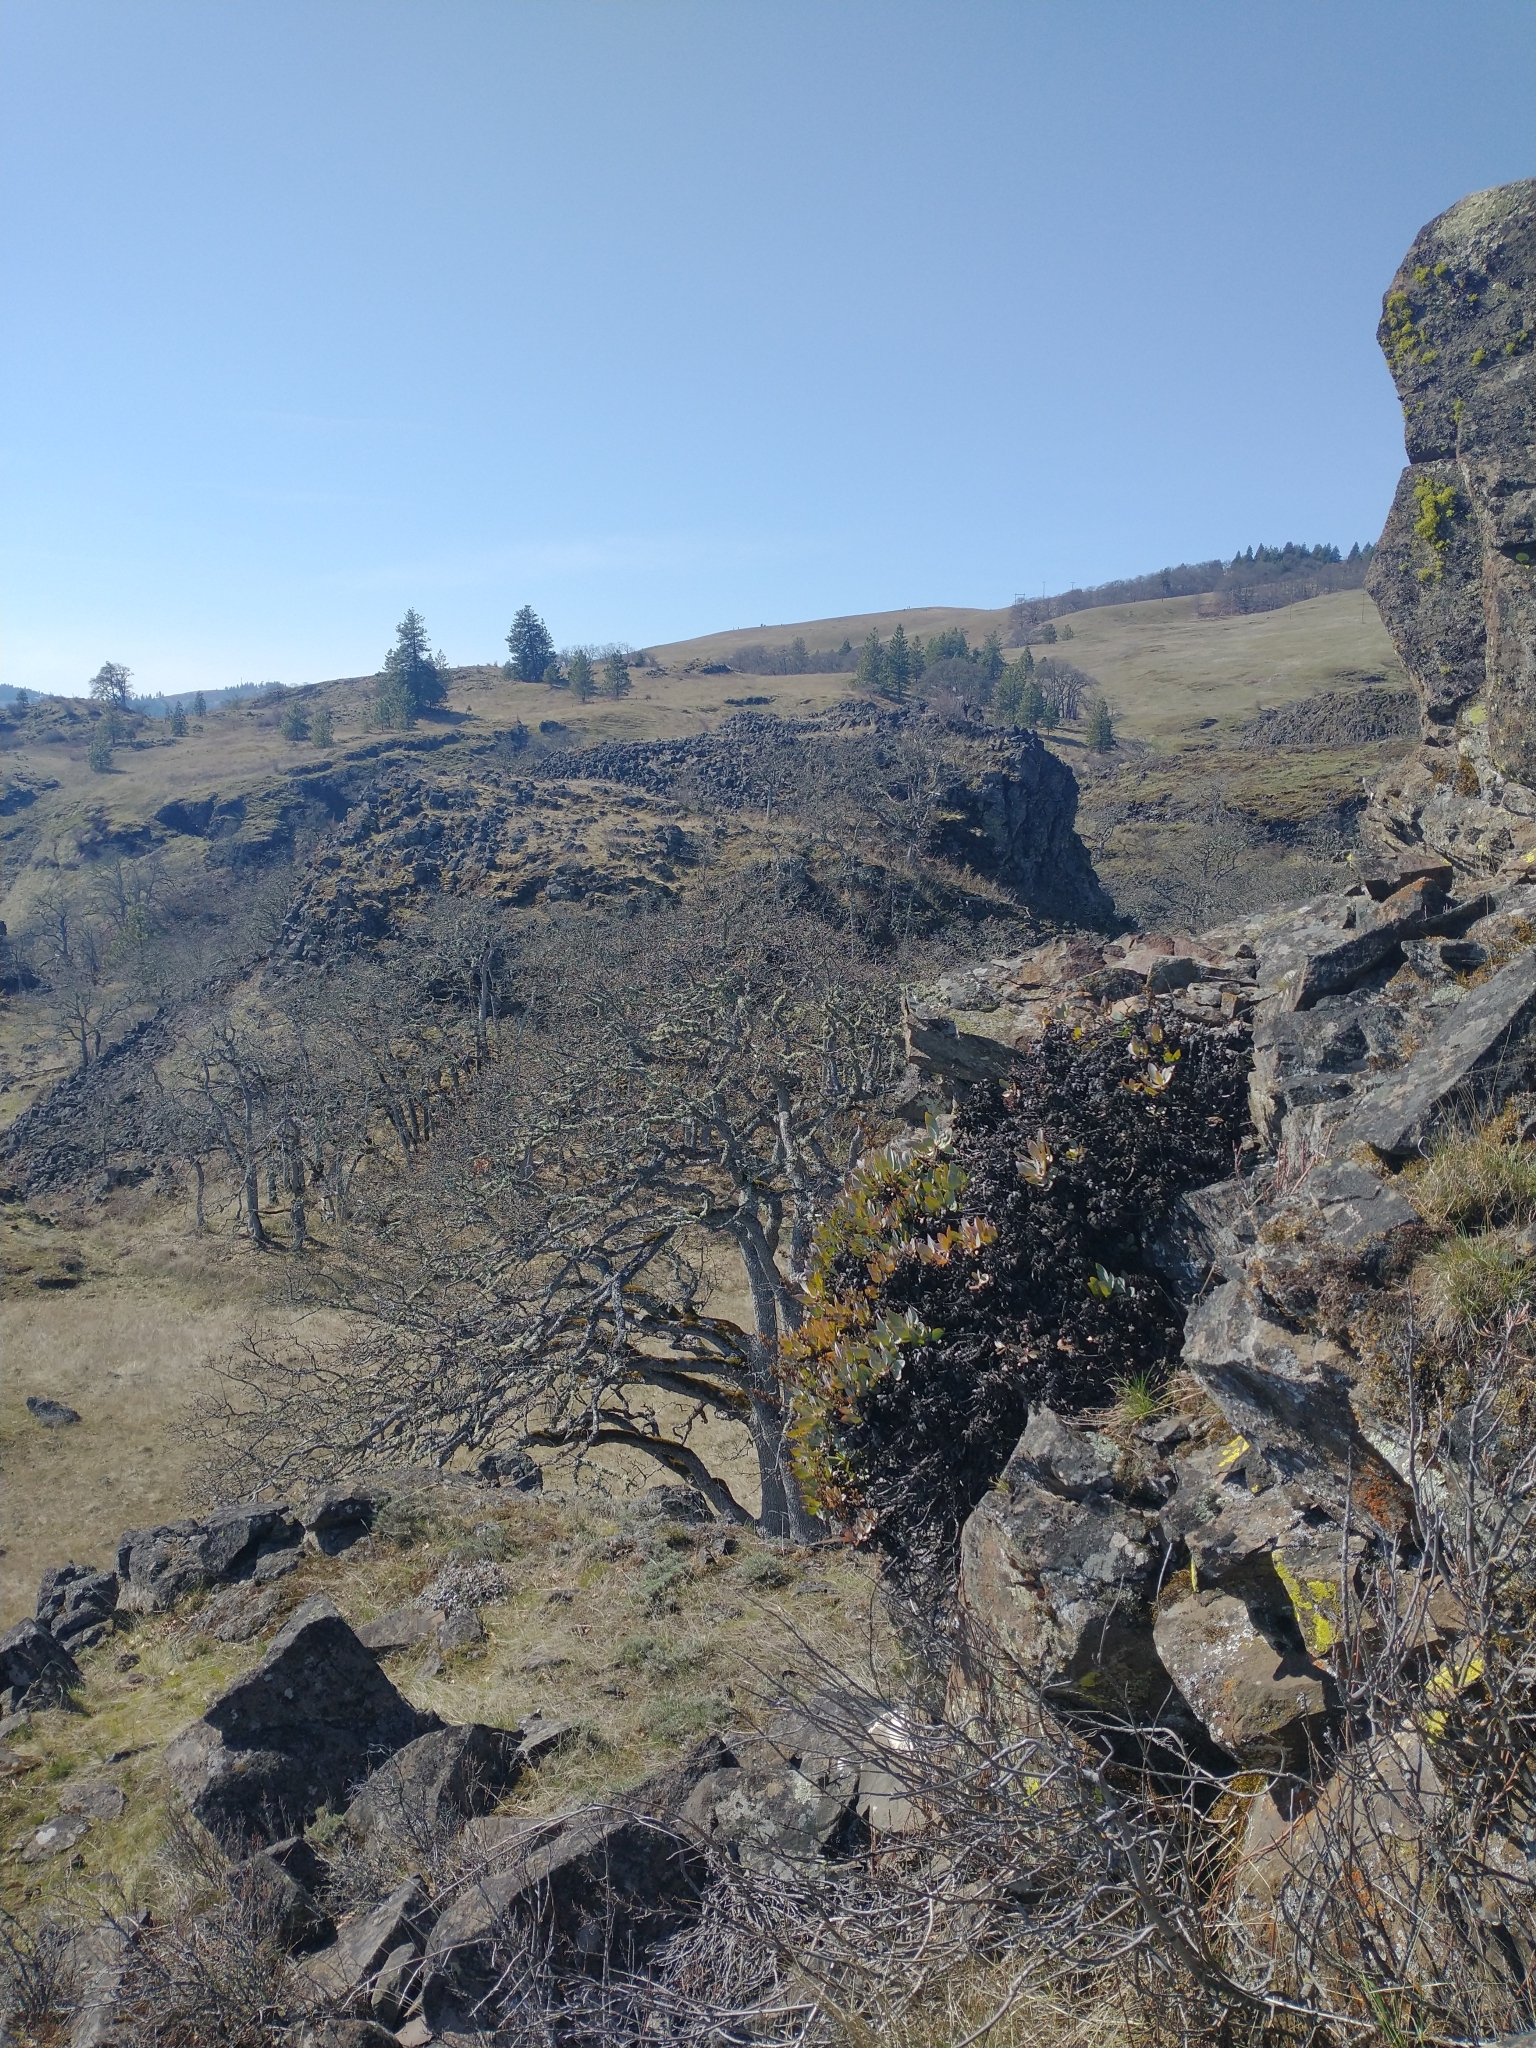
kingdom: Plantae
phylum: Tracheophyta
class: Magnoliopsida
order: Fagales
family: Fagaceae
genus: Quercus
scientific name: Quercus garryana
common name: Garry oak
